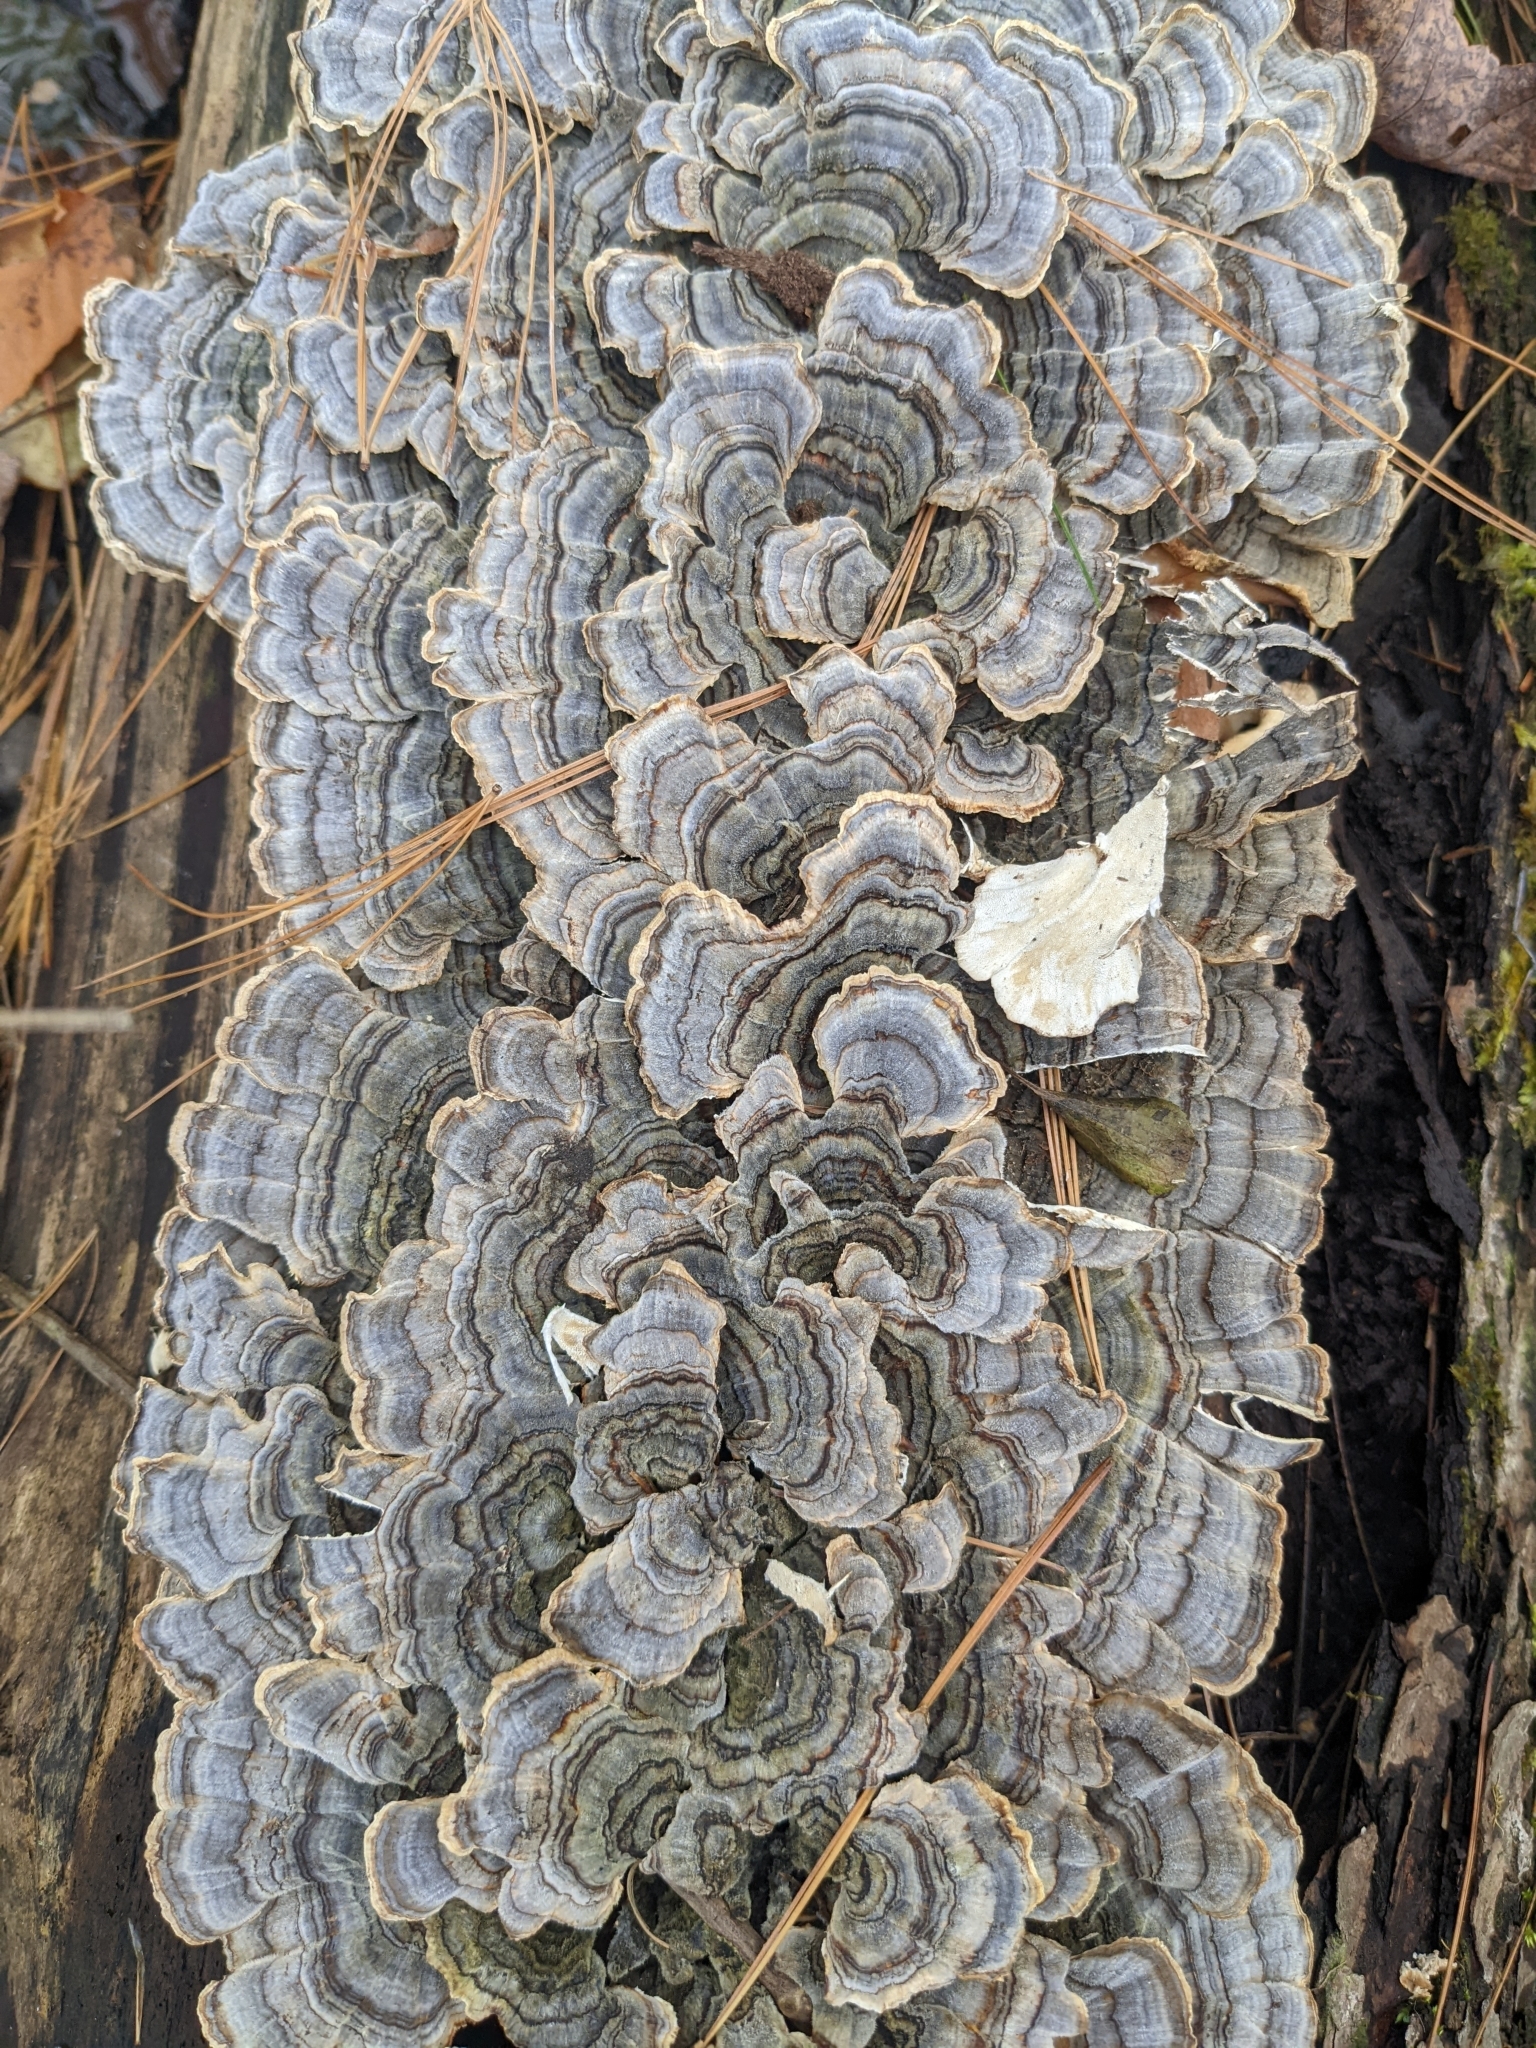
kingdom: Fungi
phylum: Basidiomycota
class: Agaricomycetes
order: Polyporales
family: Polyporaceae
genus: Trametes
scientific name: Trametes versicolor
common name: Turkeytail
